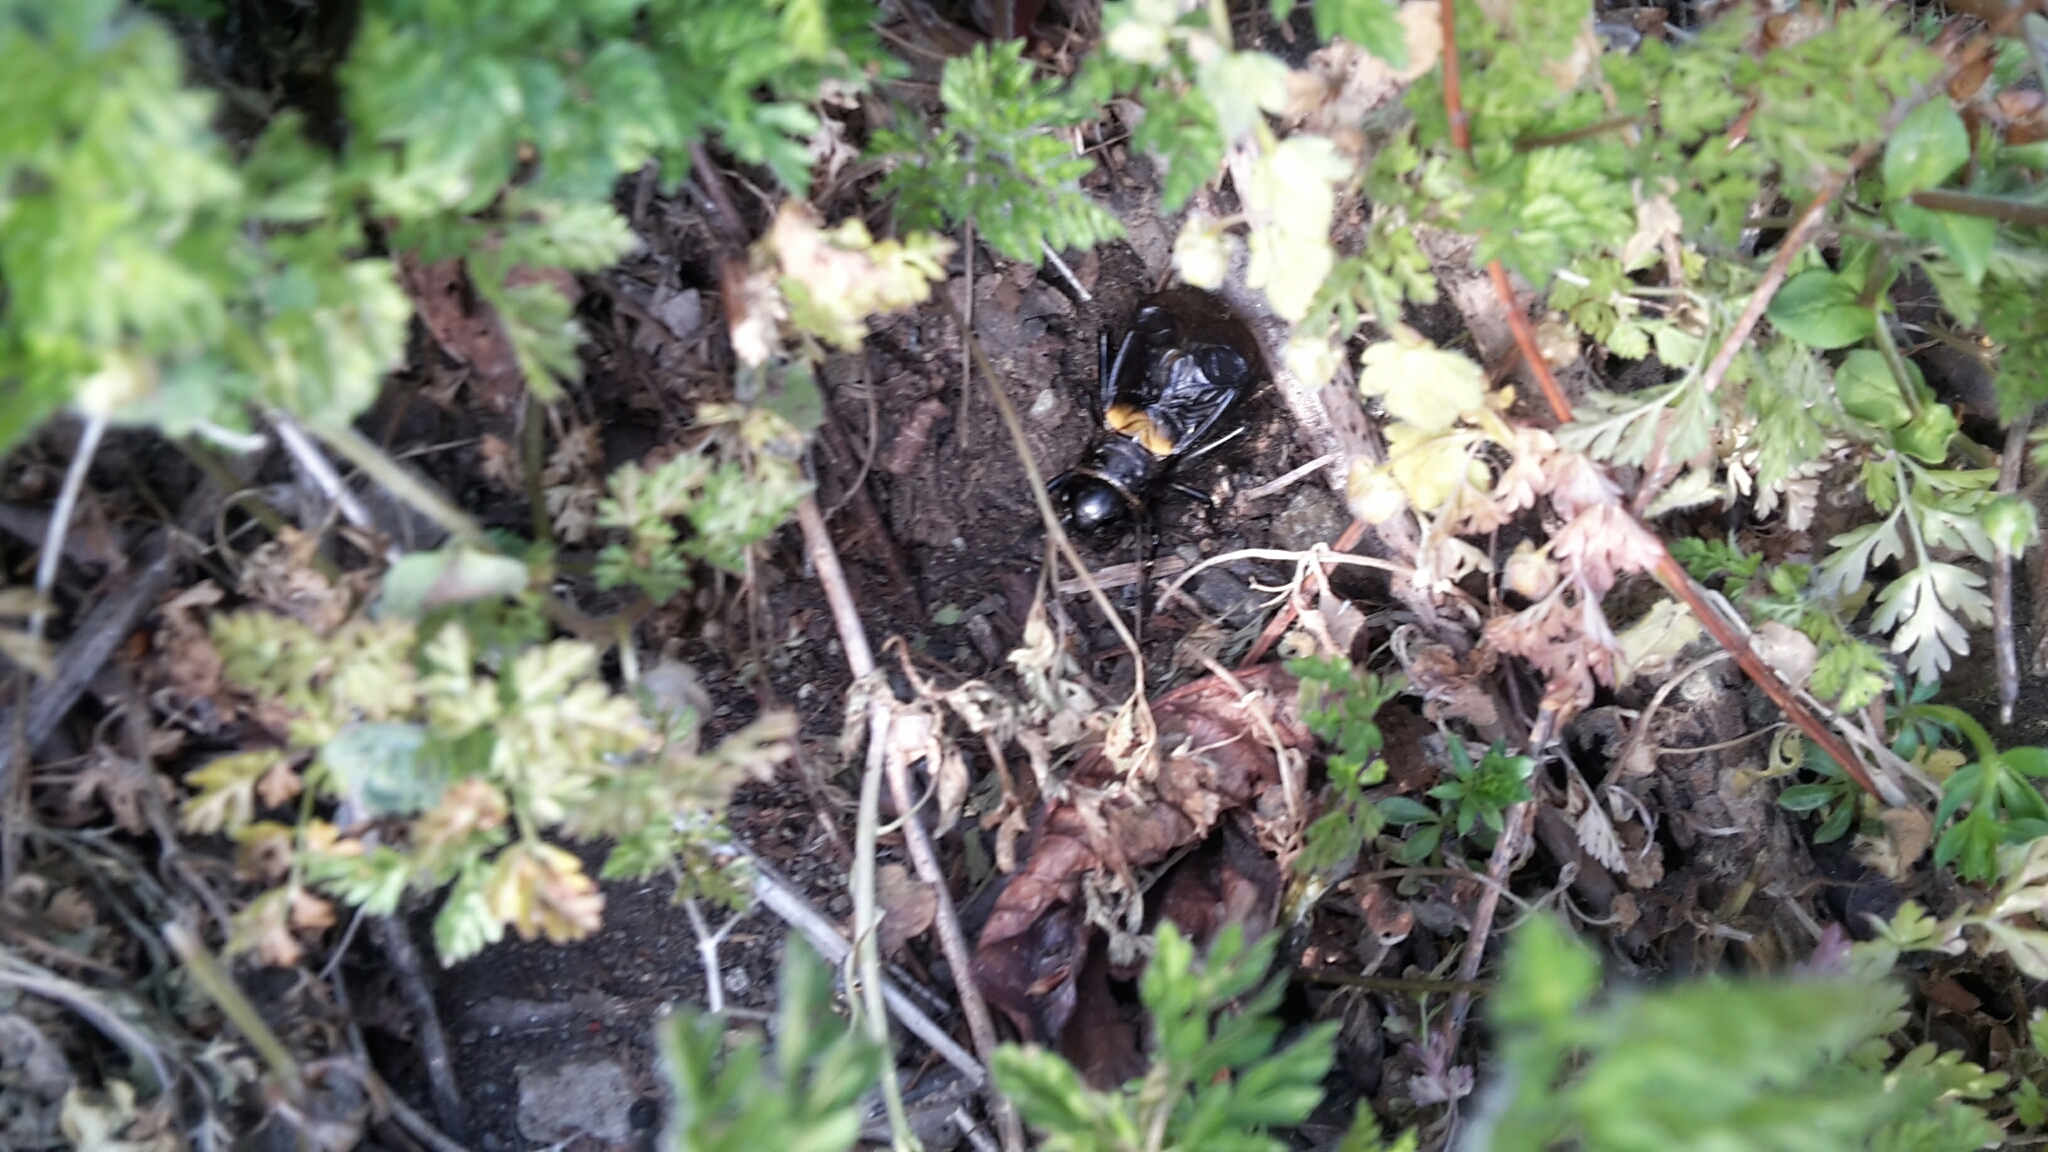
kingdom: Animalia
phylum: Arthropoda
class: Insecta
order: Orthoptera
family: Gryllidae
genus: Gryllus
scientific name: Gryllus campestris
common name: Field cricket
